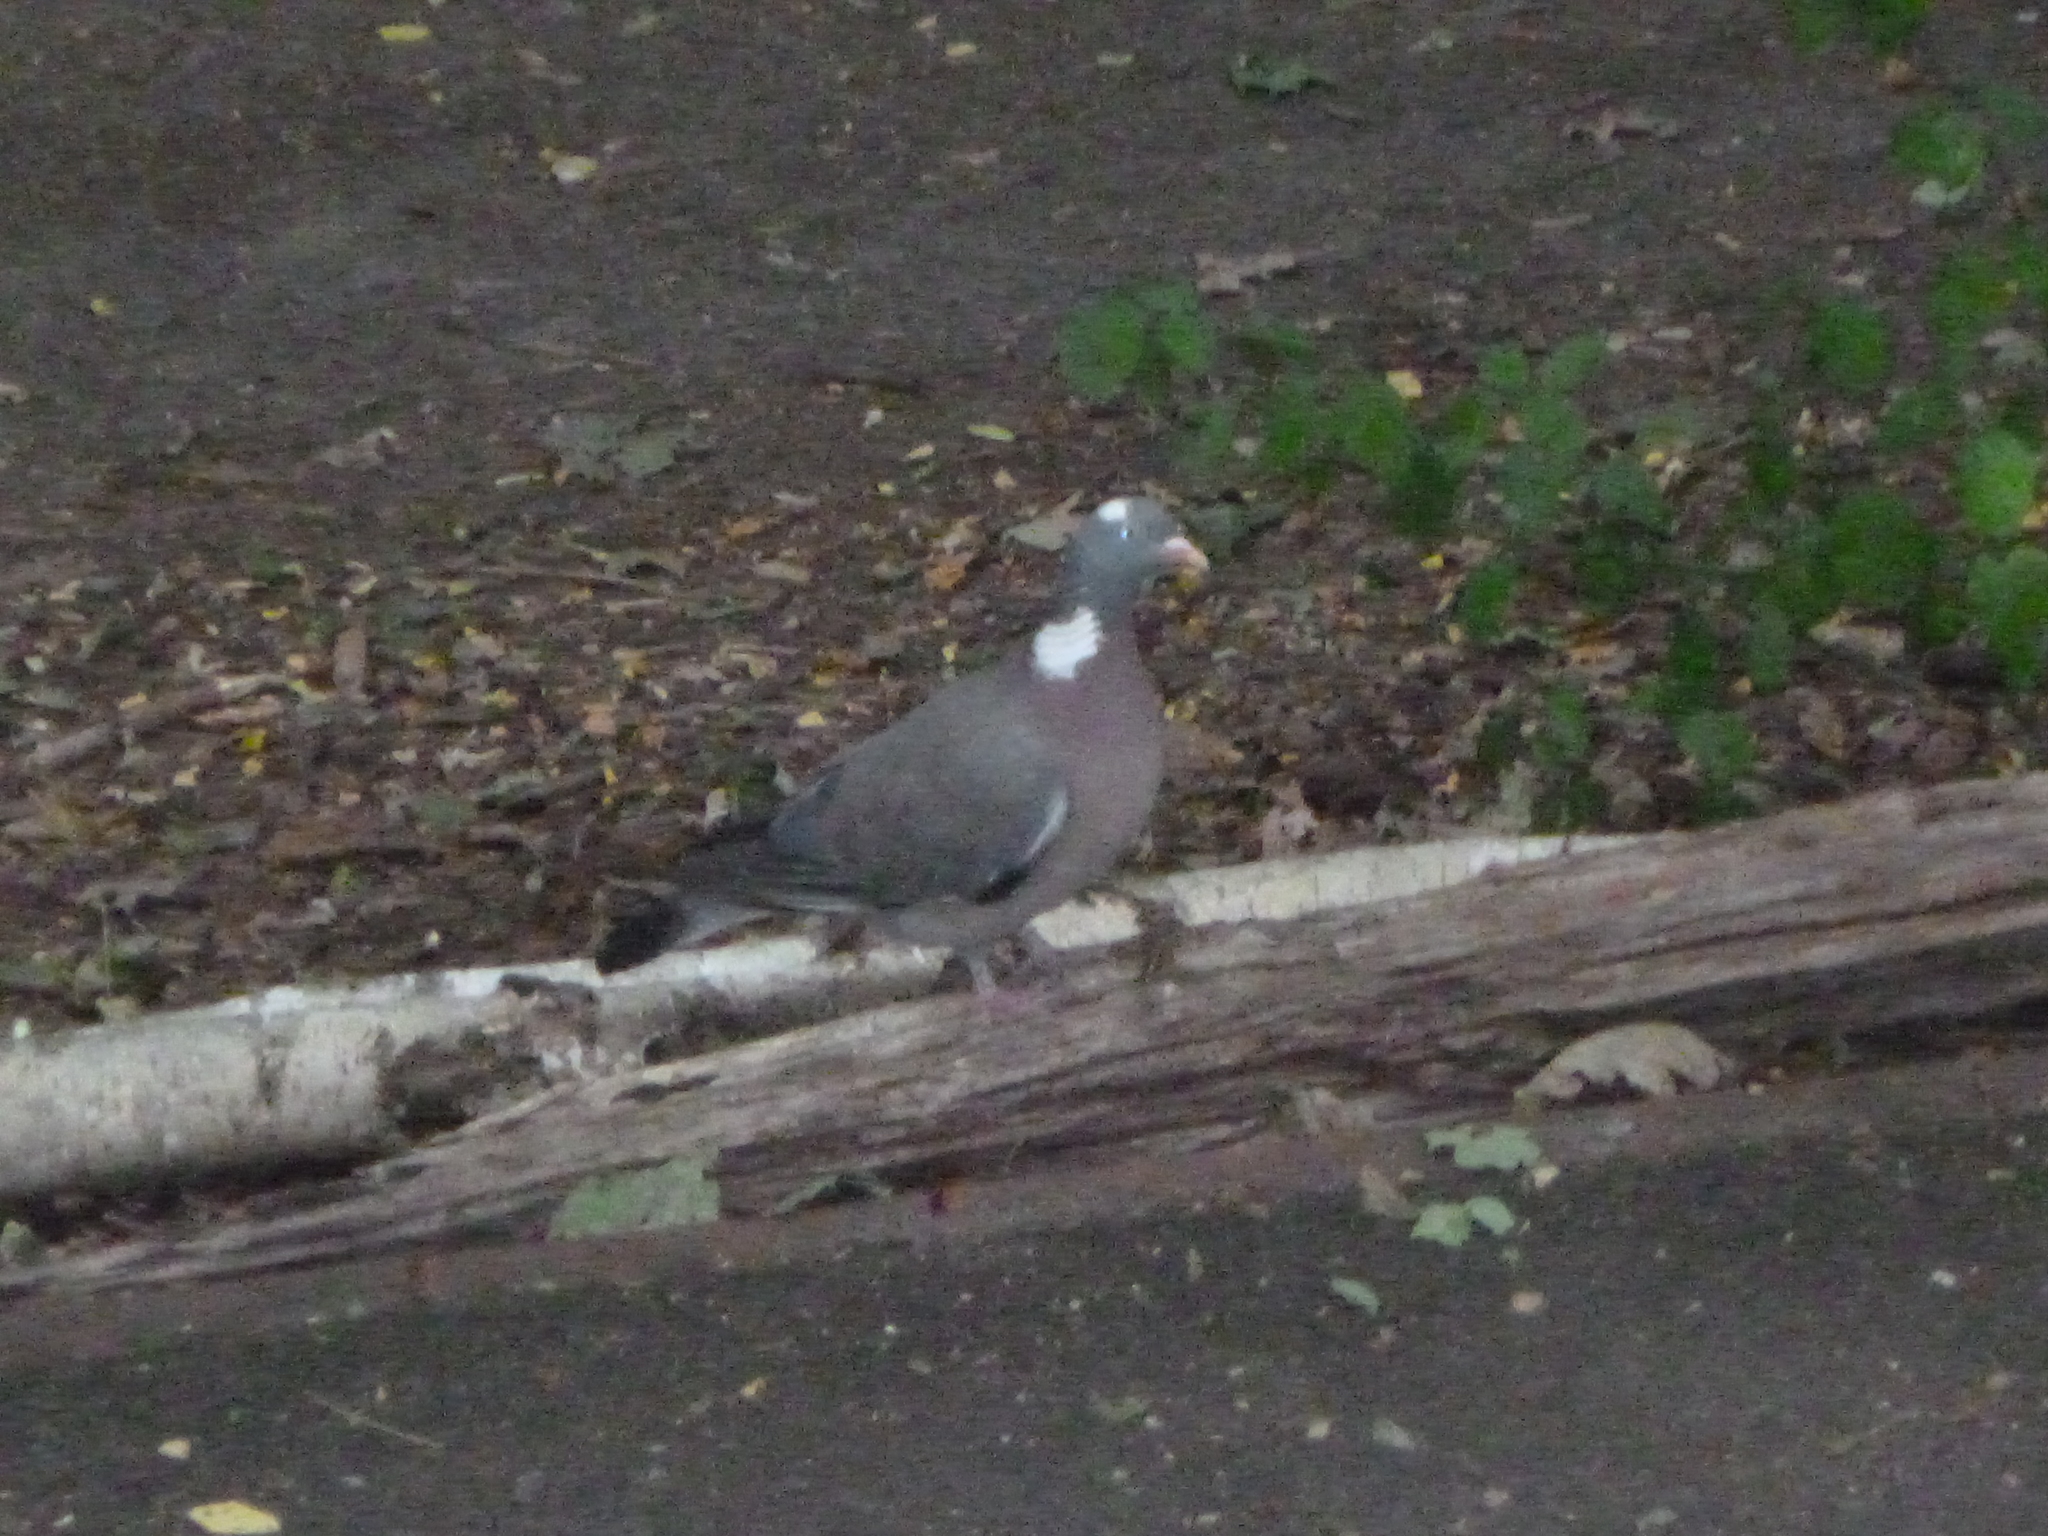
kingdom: Animalia
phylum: Chordata
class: Aves
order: Columbiformes
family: Columbidae
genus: Columba
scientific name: Columba palumbus
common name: Common wood pigeon
